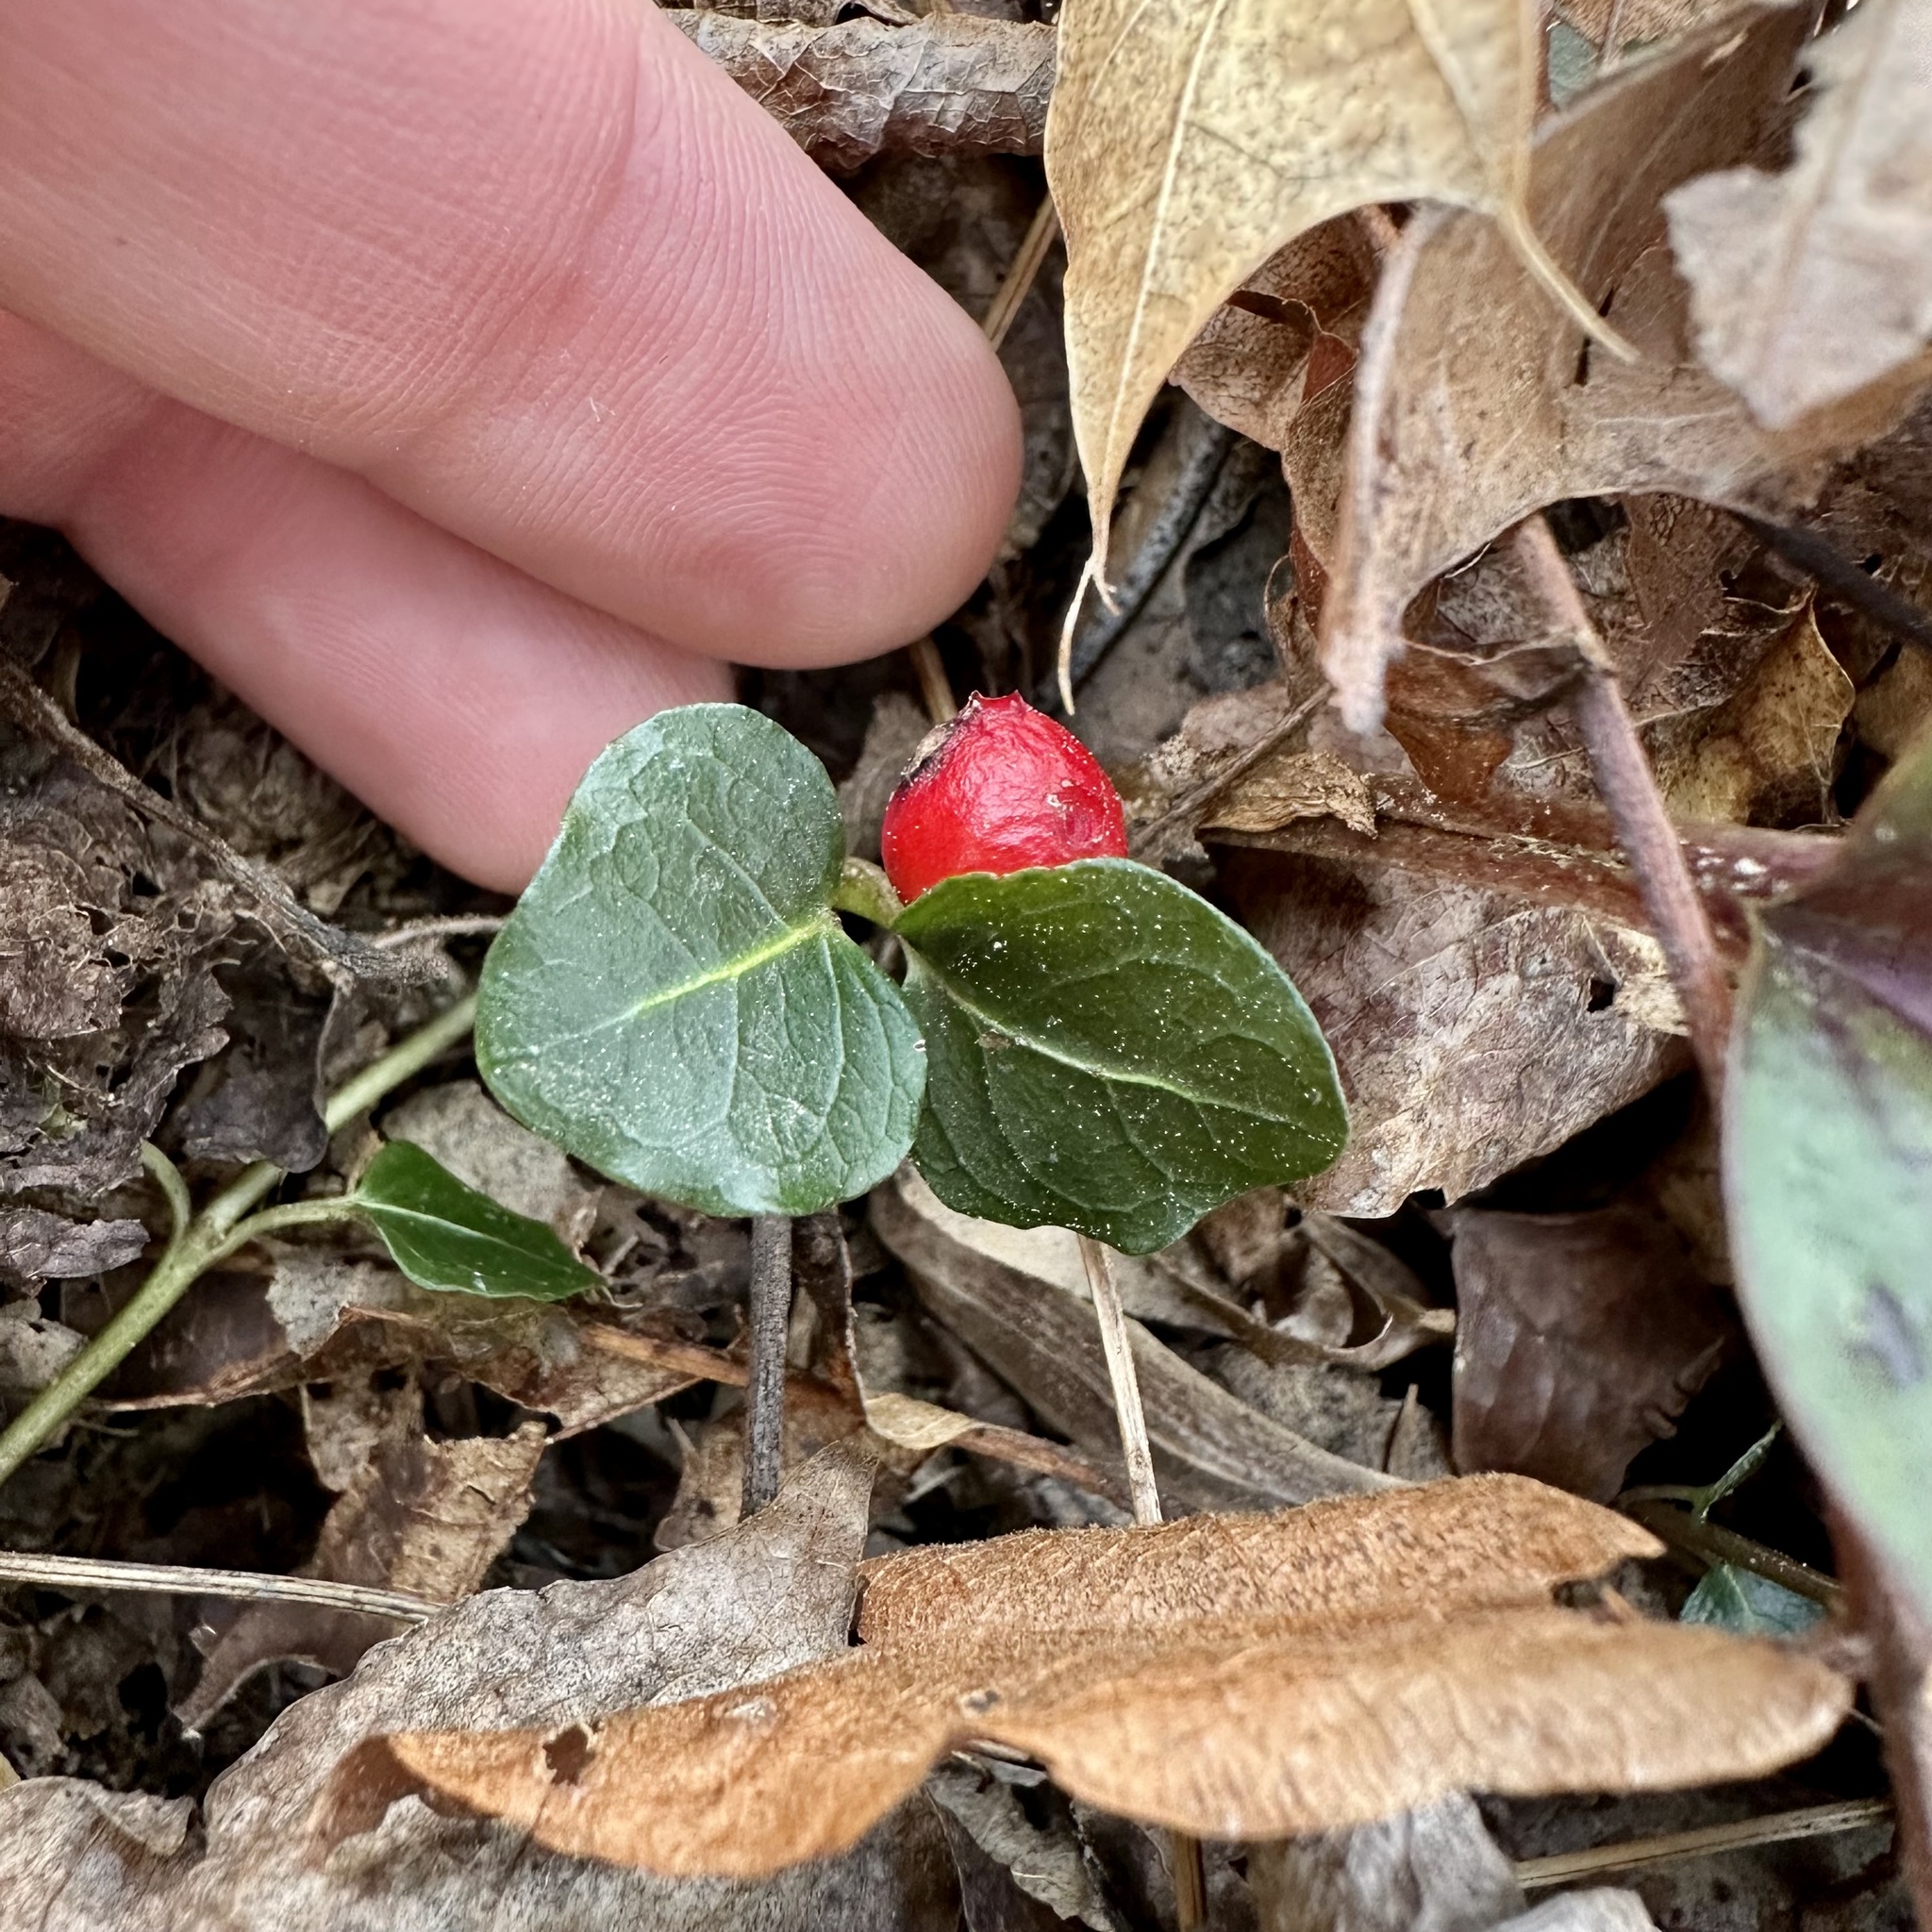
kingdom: Plantae
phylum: Tracheophyta
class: Magnoliopsida
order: Gentianales
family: Rubiaceae
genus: Mitchella
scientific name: Mitchella repens
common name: Partridge-berry
